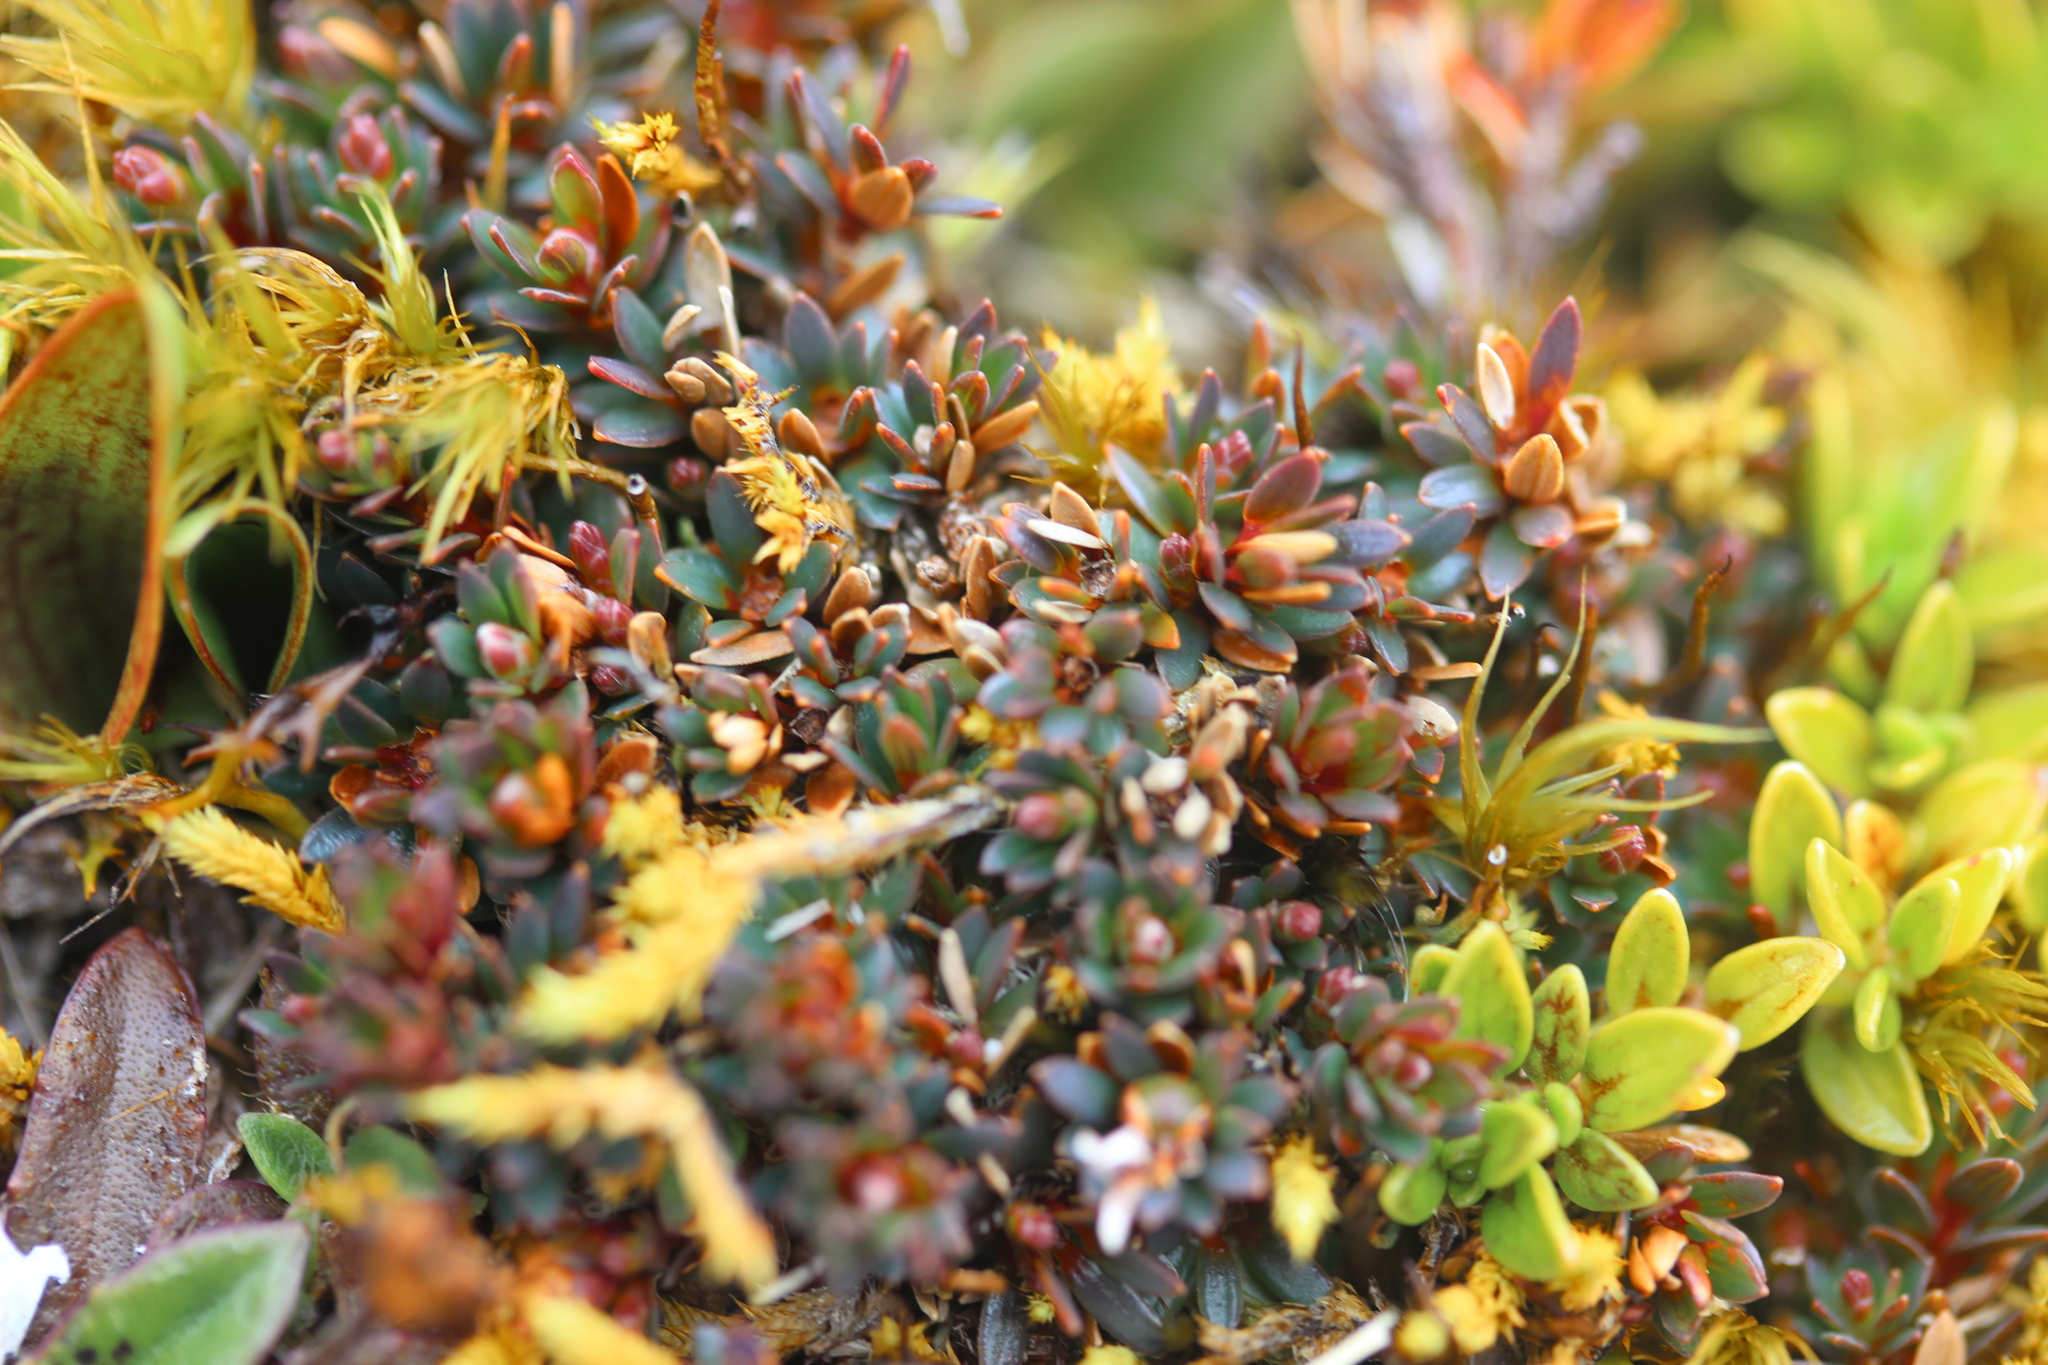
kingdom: Plantae
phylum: Tracheophyta
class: Magnoliopsida
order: Ericales
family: Ericaceae
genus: Pentachondra
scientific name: Pentachondra pumila
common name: Carpet-heath
